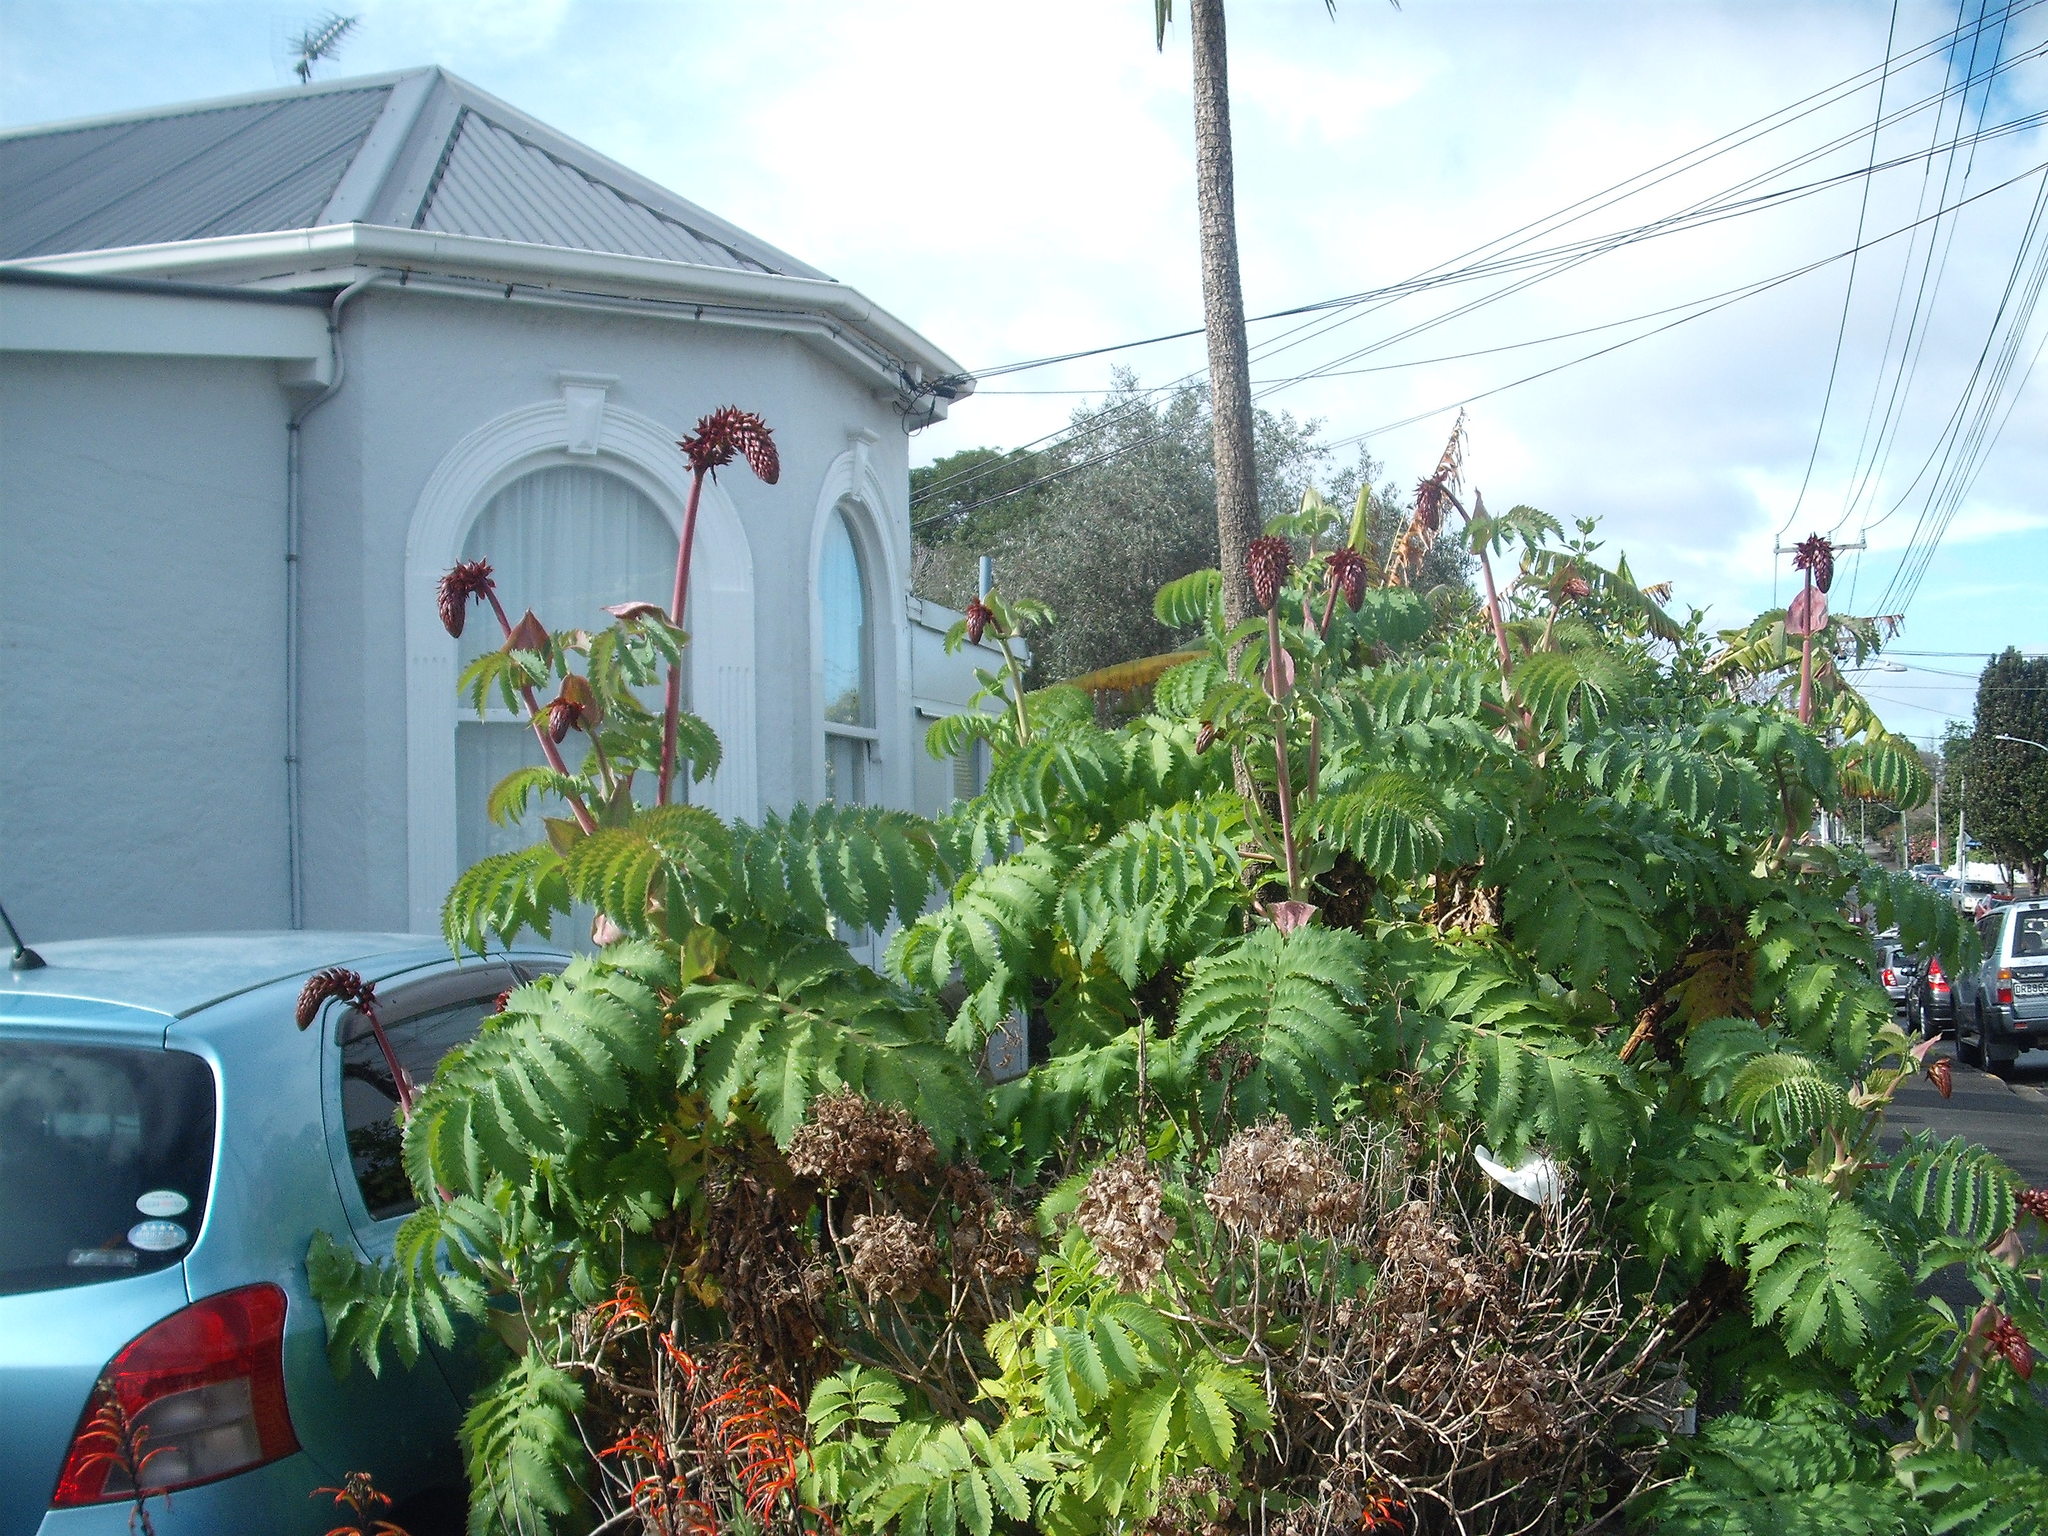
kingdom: Plantae
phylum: Tracheophyta
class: Magnoliopsida
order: Geraniales
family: Melianthaceae
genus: Melianthus
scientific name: Melianthus major
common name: Honey-flower
